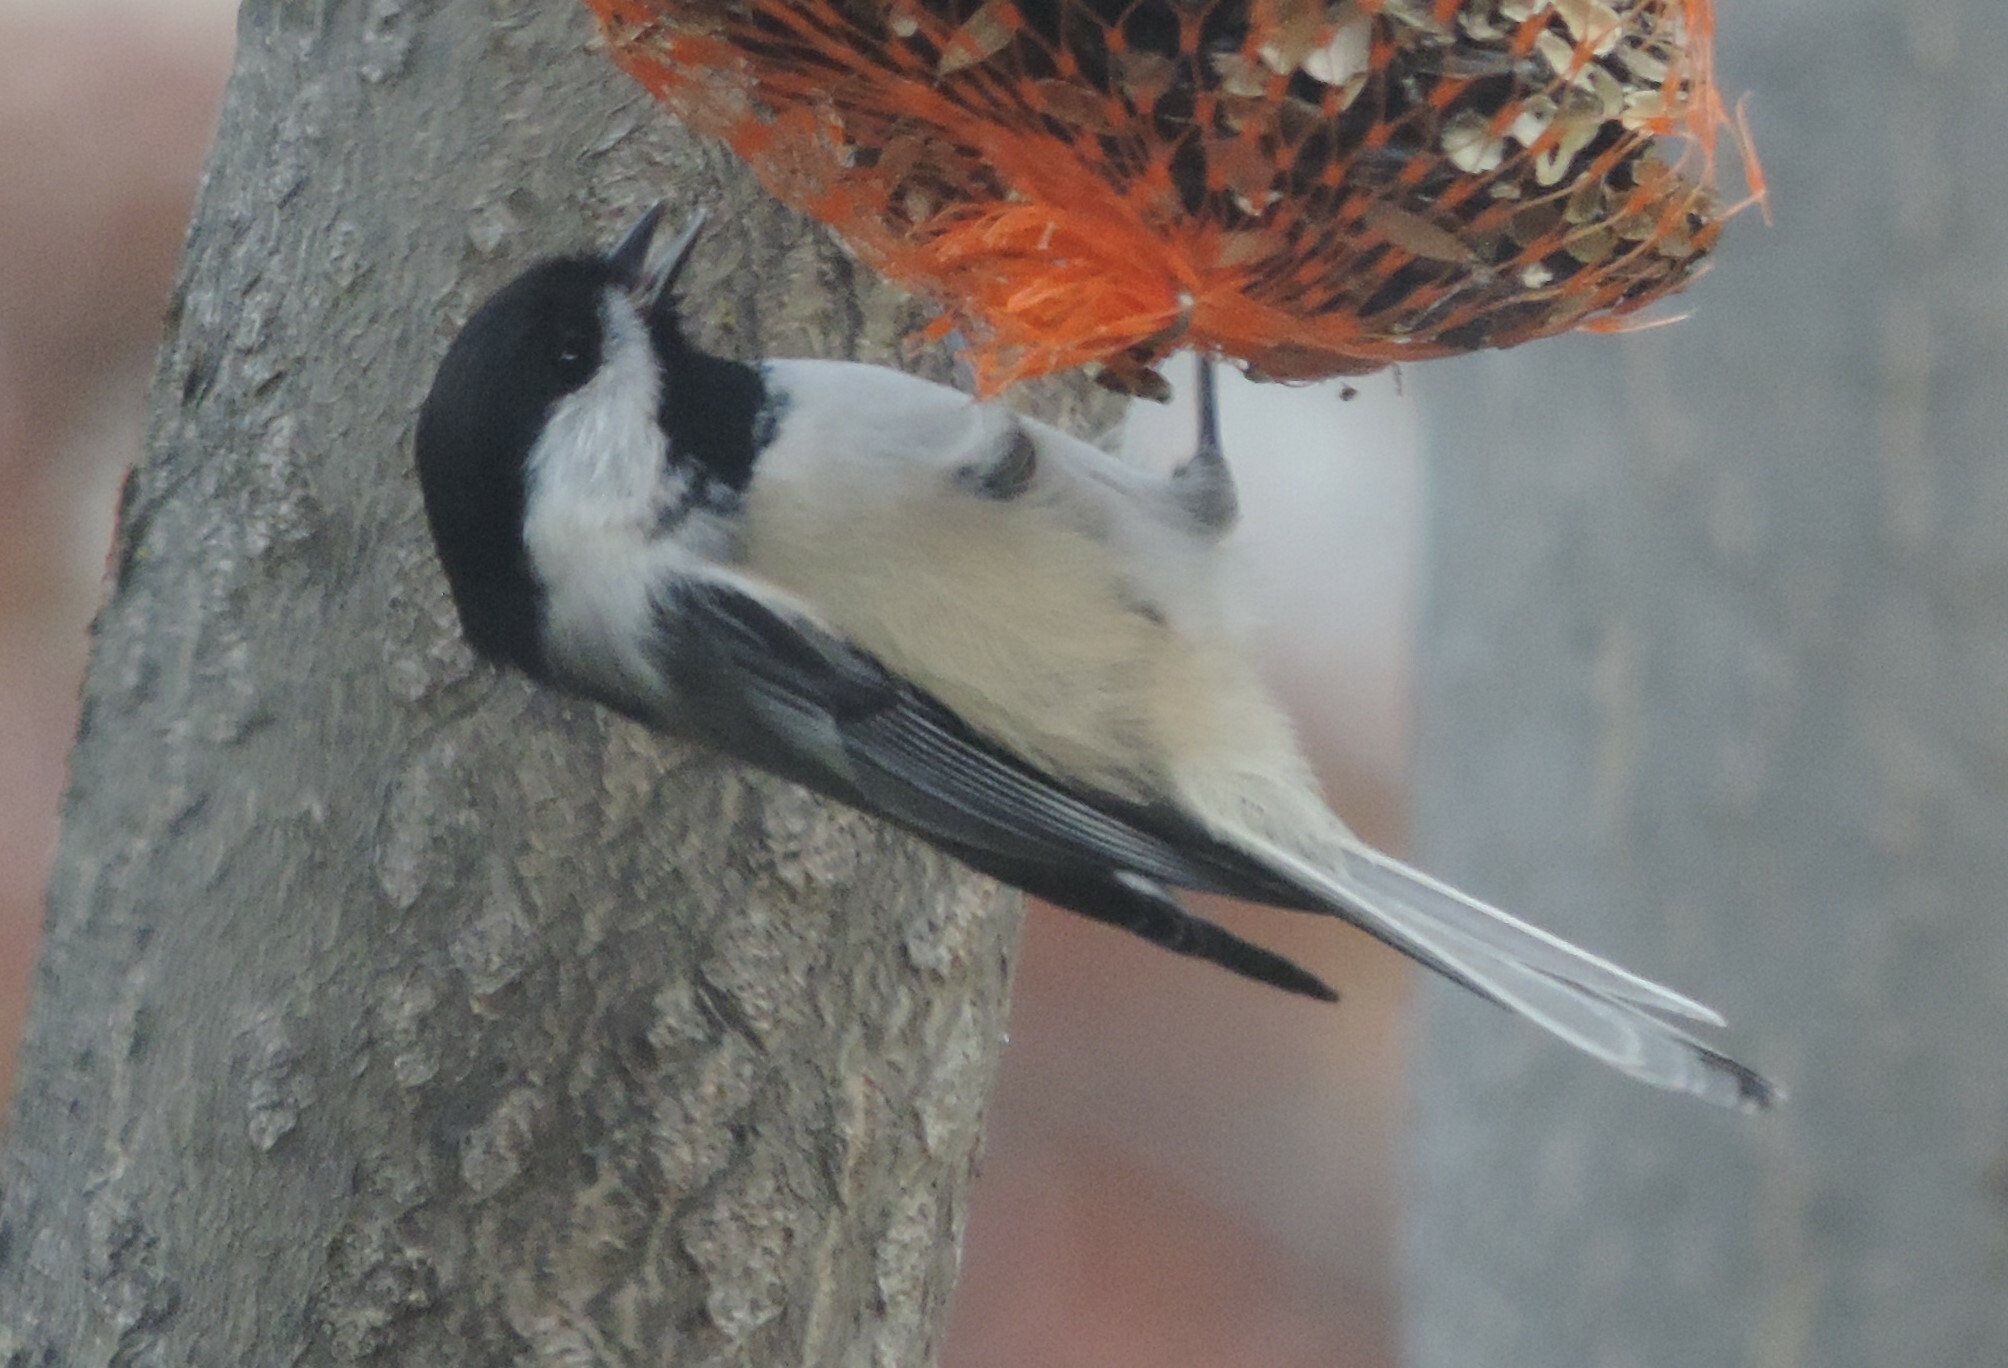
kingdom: Animalia
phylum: Chordata
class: Aves
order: Passeriformes
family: Paridae
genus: Poecile
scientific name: Poecile atricapillus
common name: Black-capped chickadee
